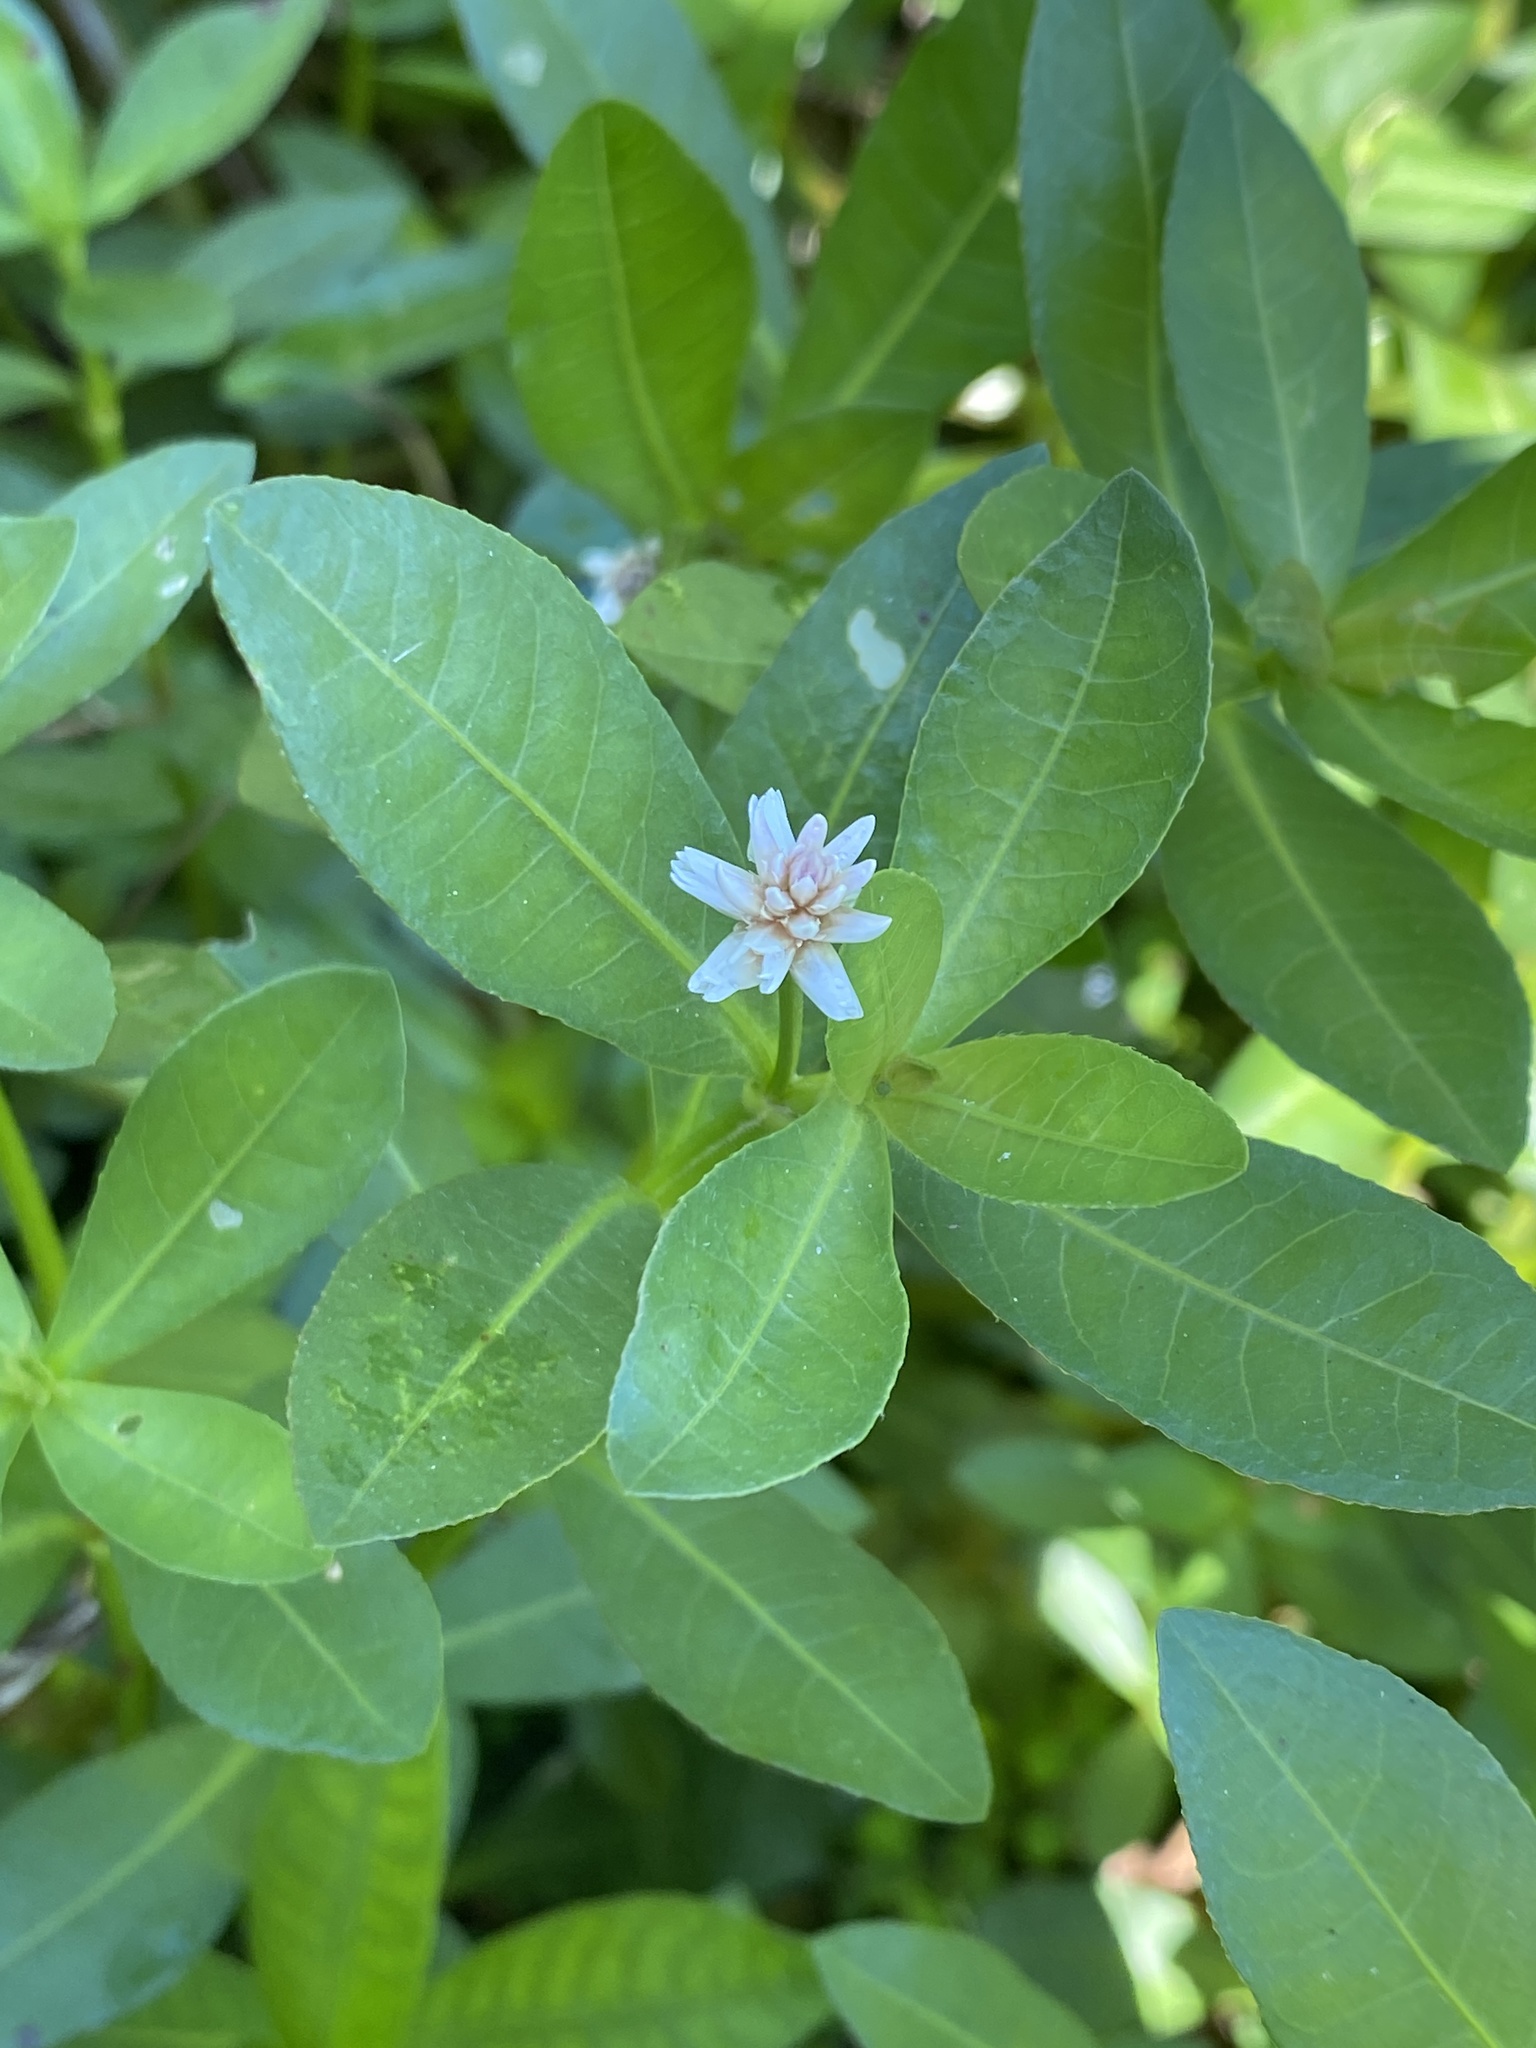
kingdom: Plantae
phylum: Tracheophyta
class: Magnoliopsida
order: Caryophyllales
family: Amaranthaceae
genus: Alternanthera
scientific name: Alternanthera philoxeroides
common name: Alligatorweed
